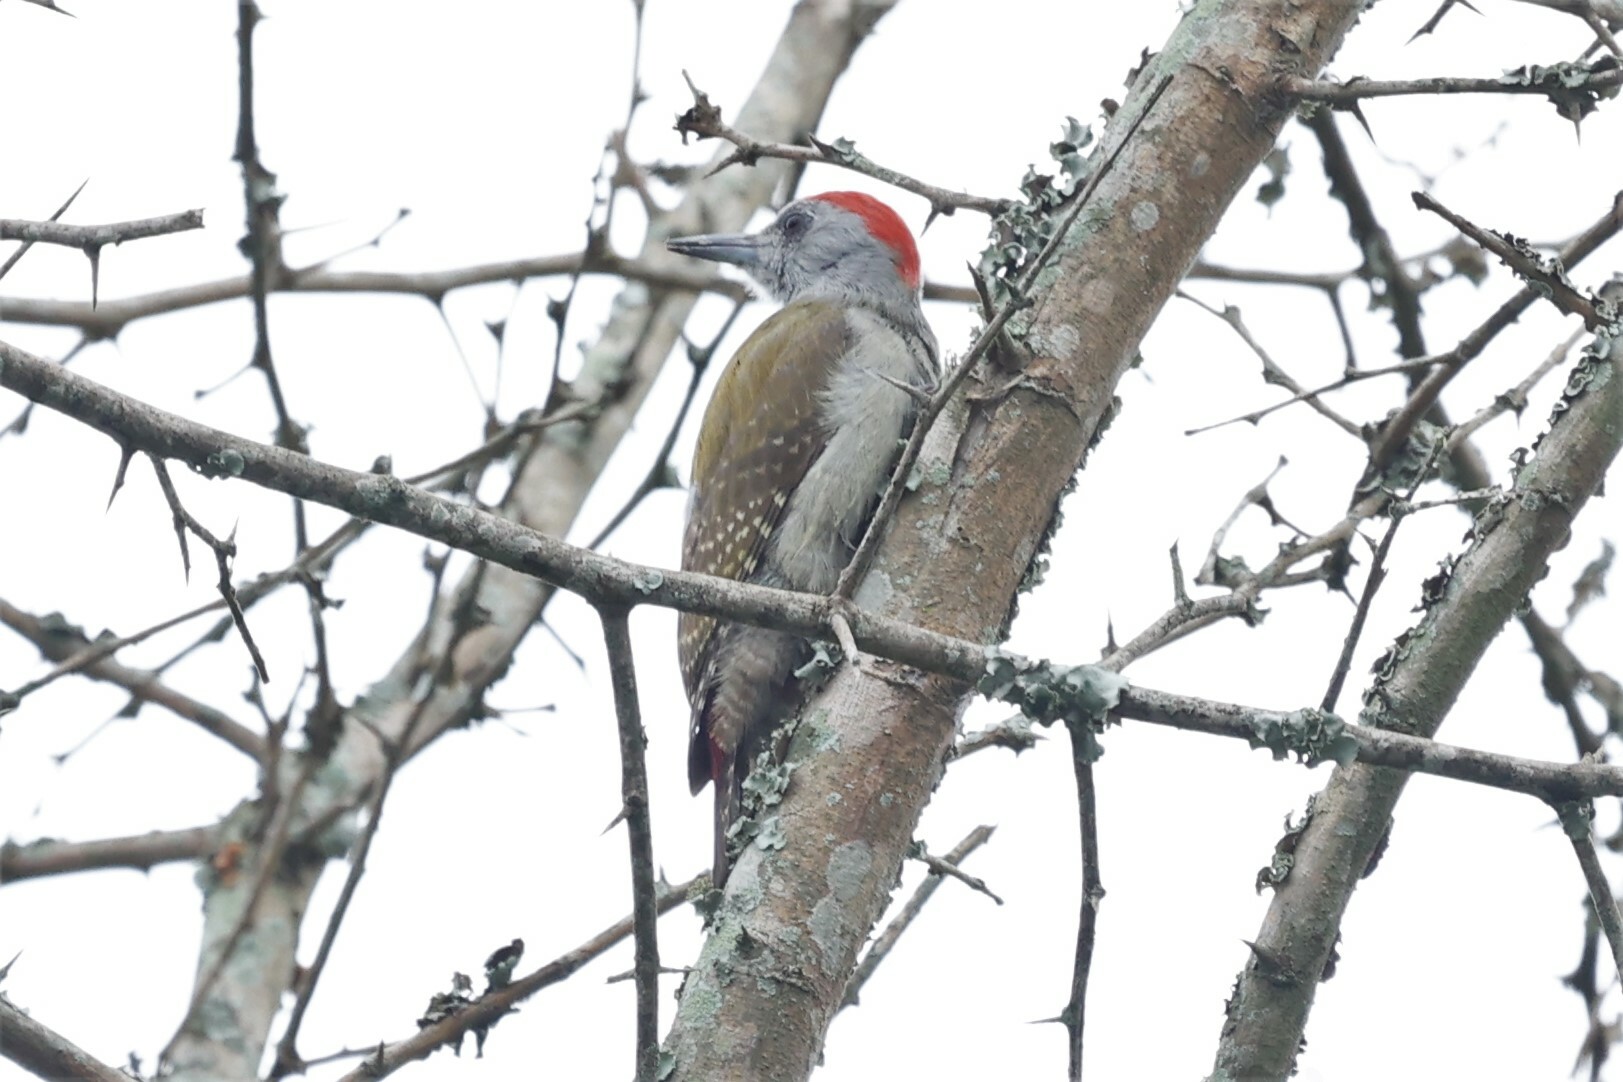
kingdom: Animalia
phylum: Chordata
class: Aves
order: Piciformes
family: Picidae
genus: Dendropicos
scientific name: Dendropicos goertae
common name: African grey woodpecker
